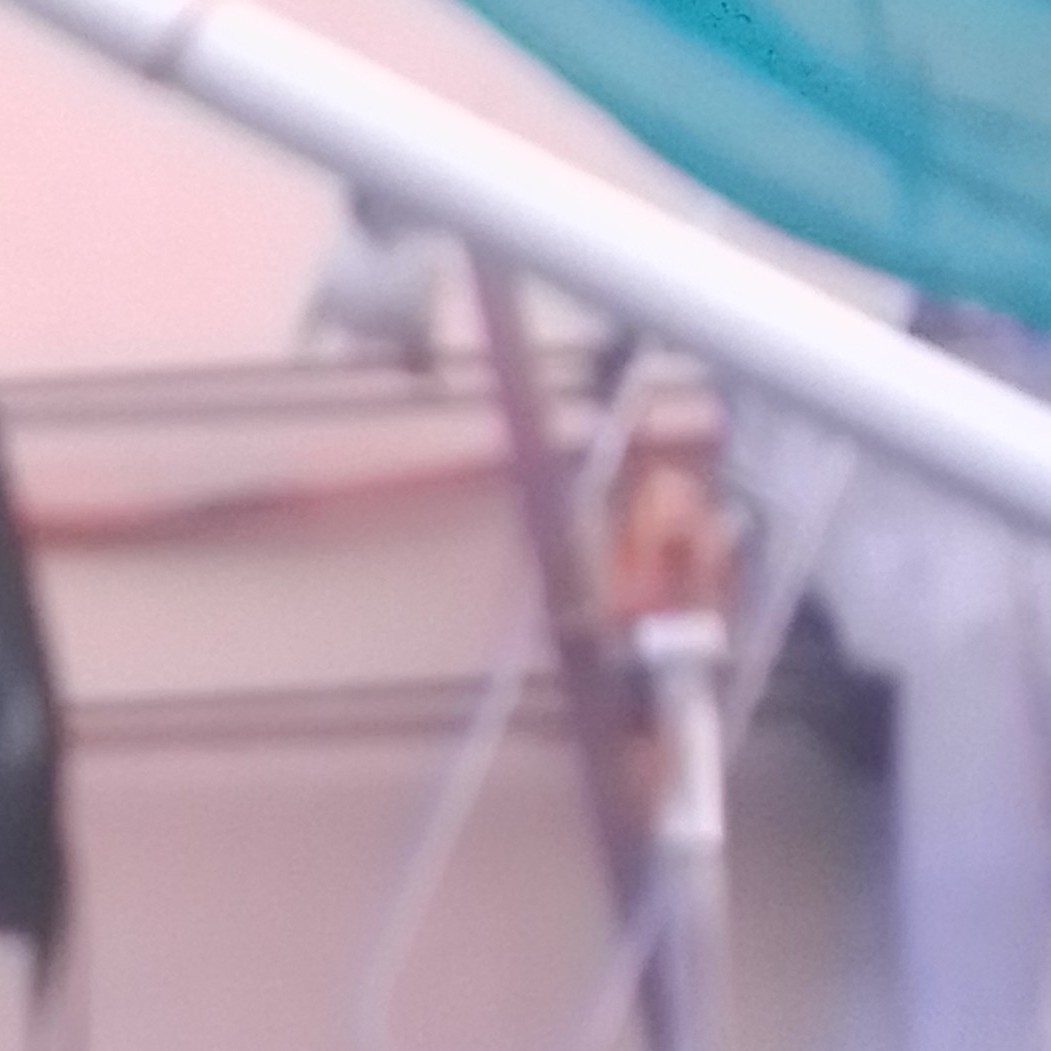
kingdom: Animalia
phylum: Chordata
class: Aves
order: Passeriformes
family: Passeridae
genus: Passer
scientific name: Passer domesticus
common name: House sparrow
